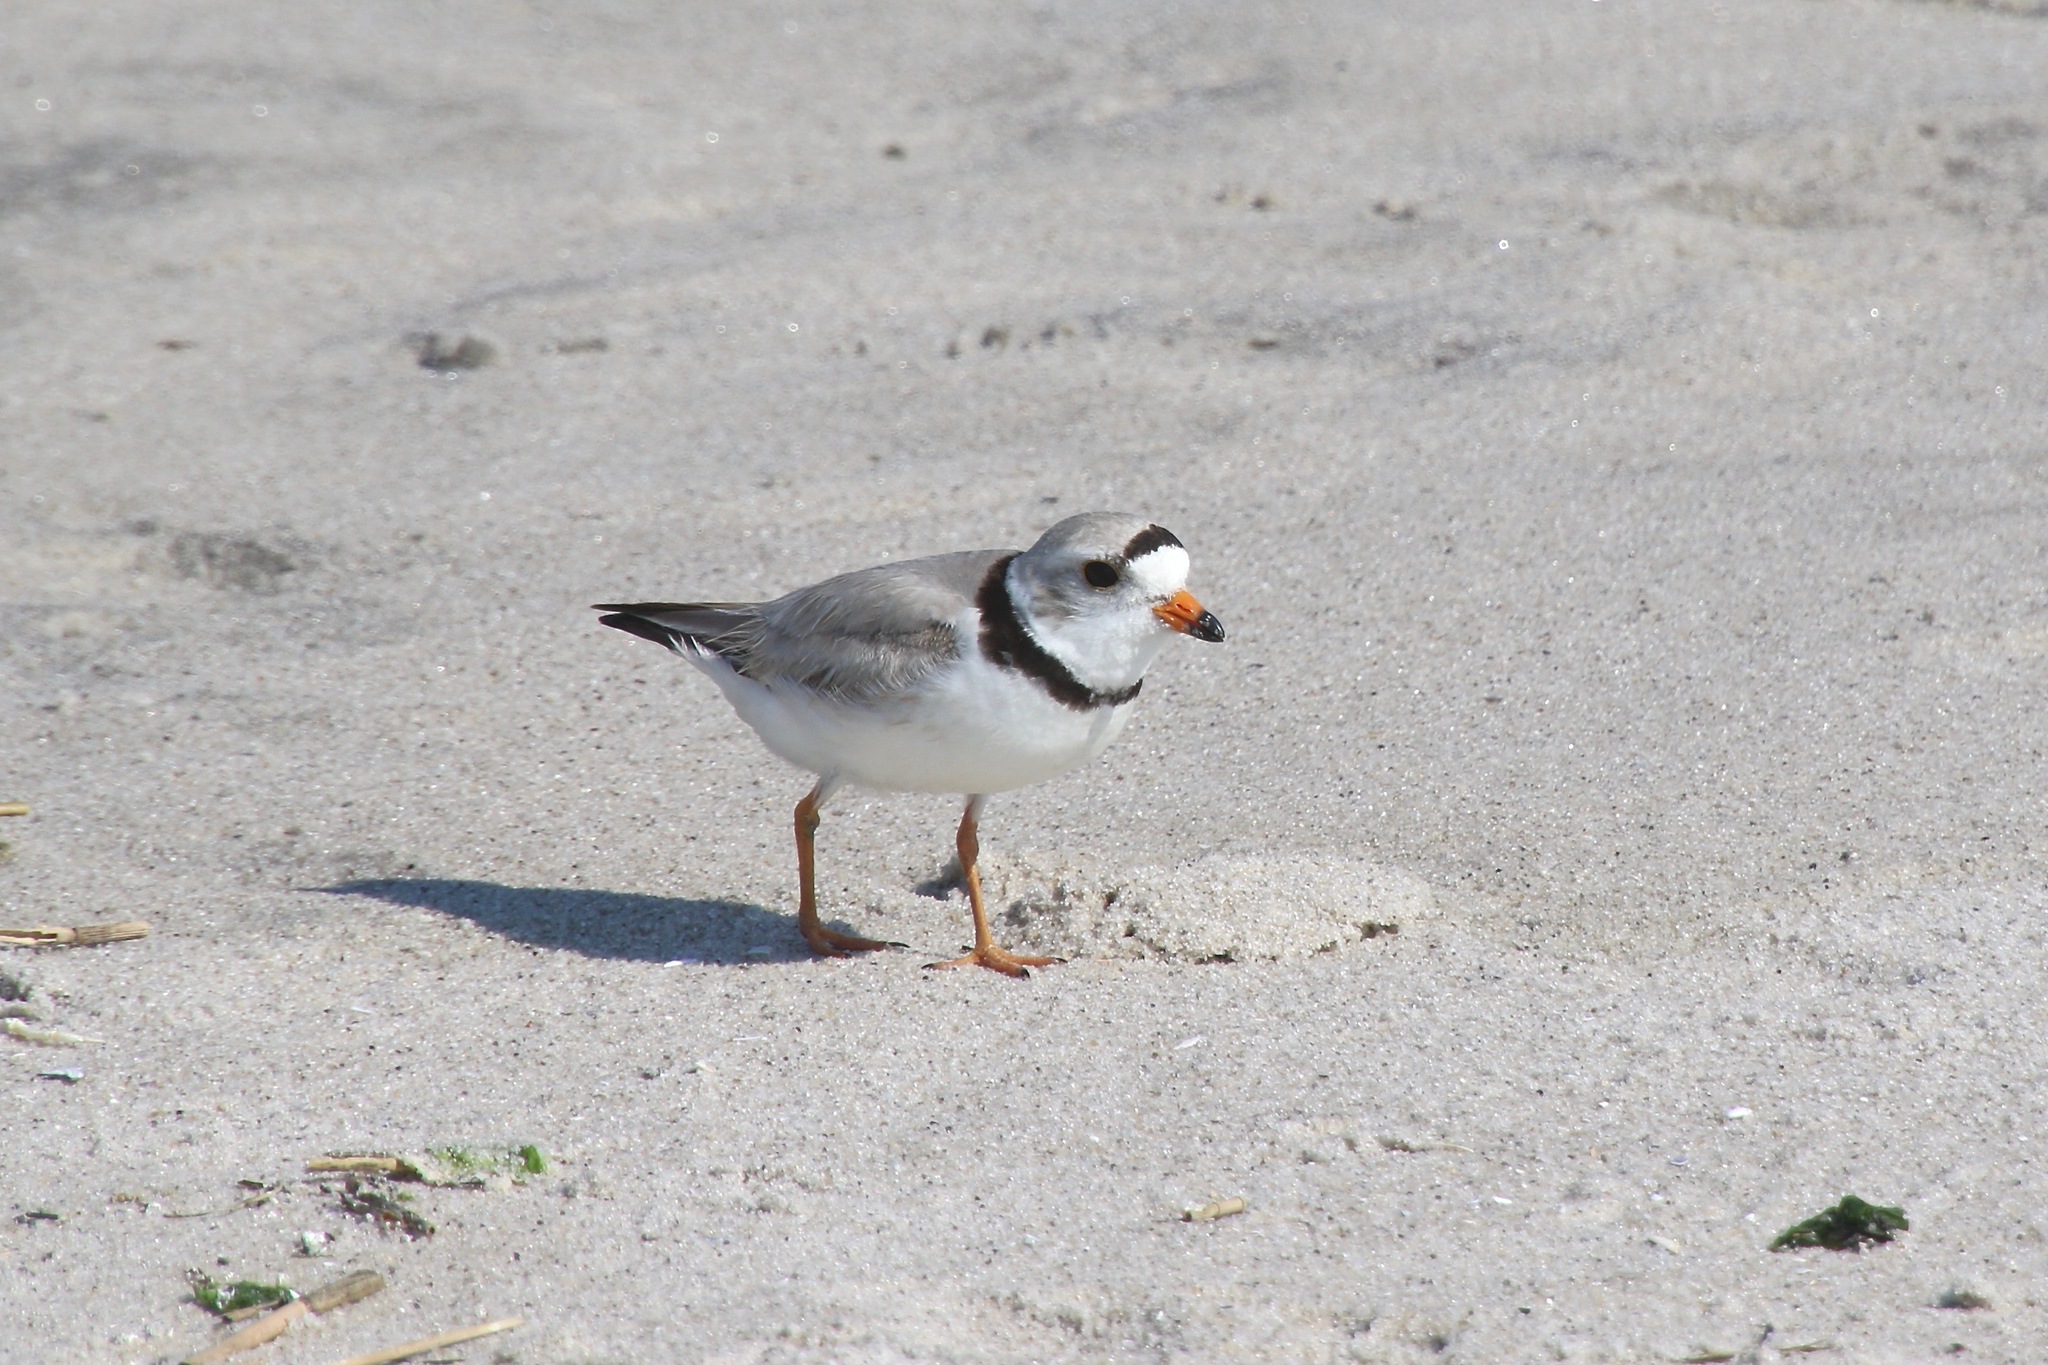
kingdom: Animalia
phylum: Chordata
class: Aves
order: Charadriiformes
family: Charadriidae
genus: Charadrius
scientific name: Charadrius melodus
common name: Piping plover
